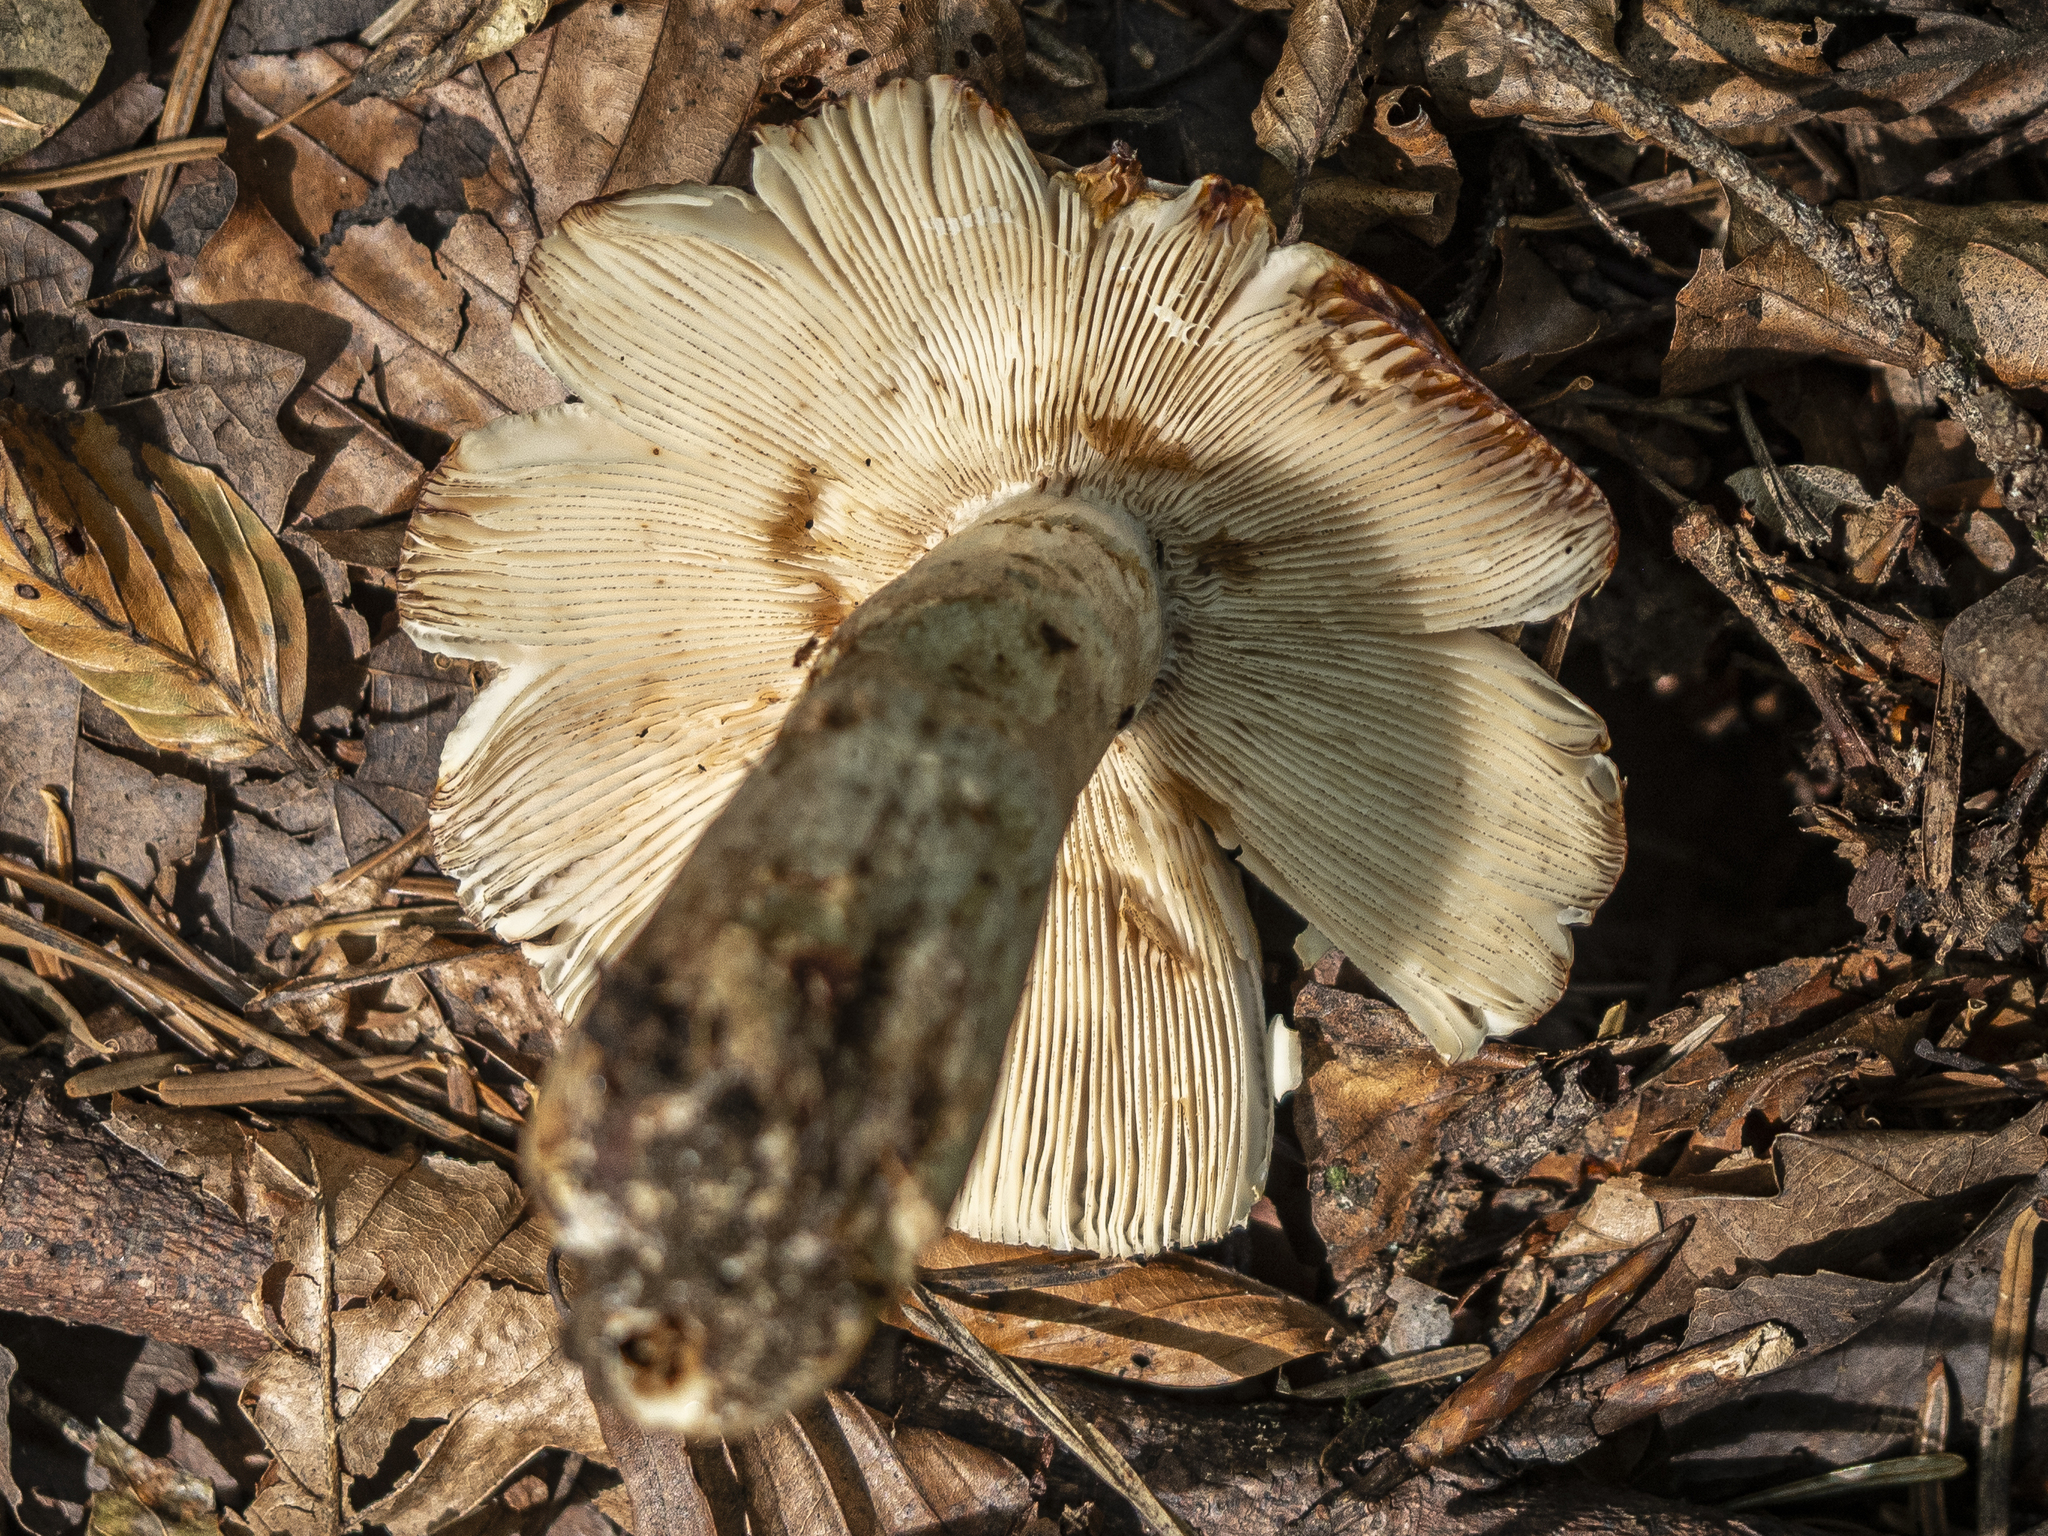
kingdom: Fungi
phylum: Basidiomycota
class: Agaricomycetes
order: Russulales
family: Russulaceae
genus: Russula
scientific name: Russula illota
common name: Freckled brittlegill
